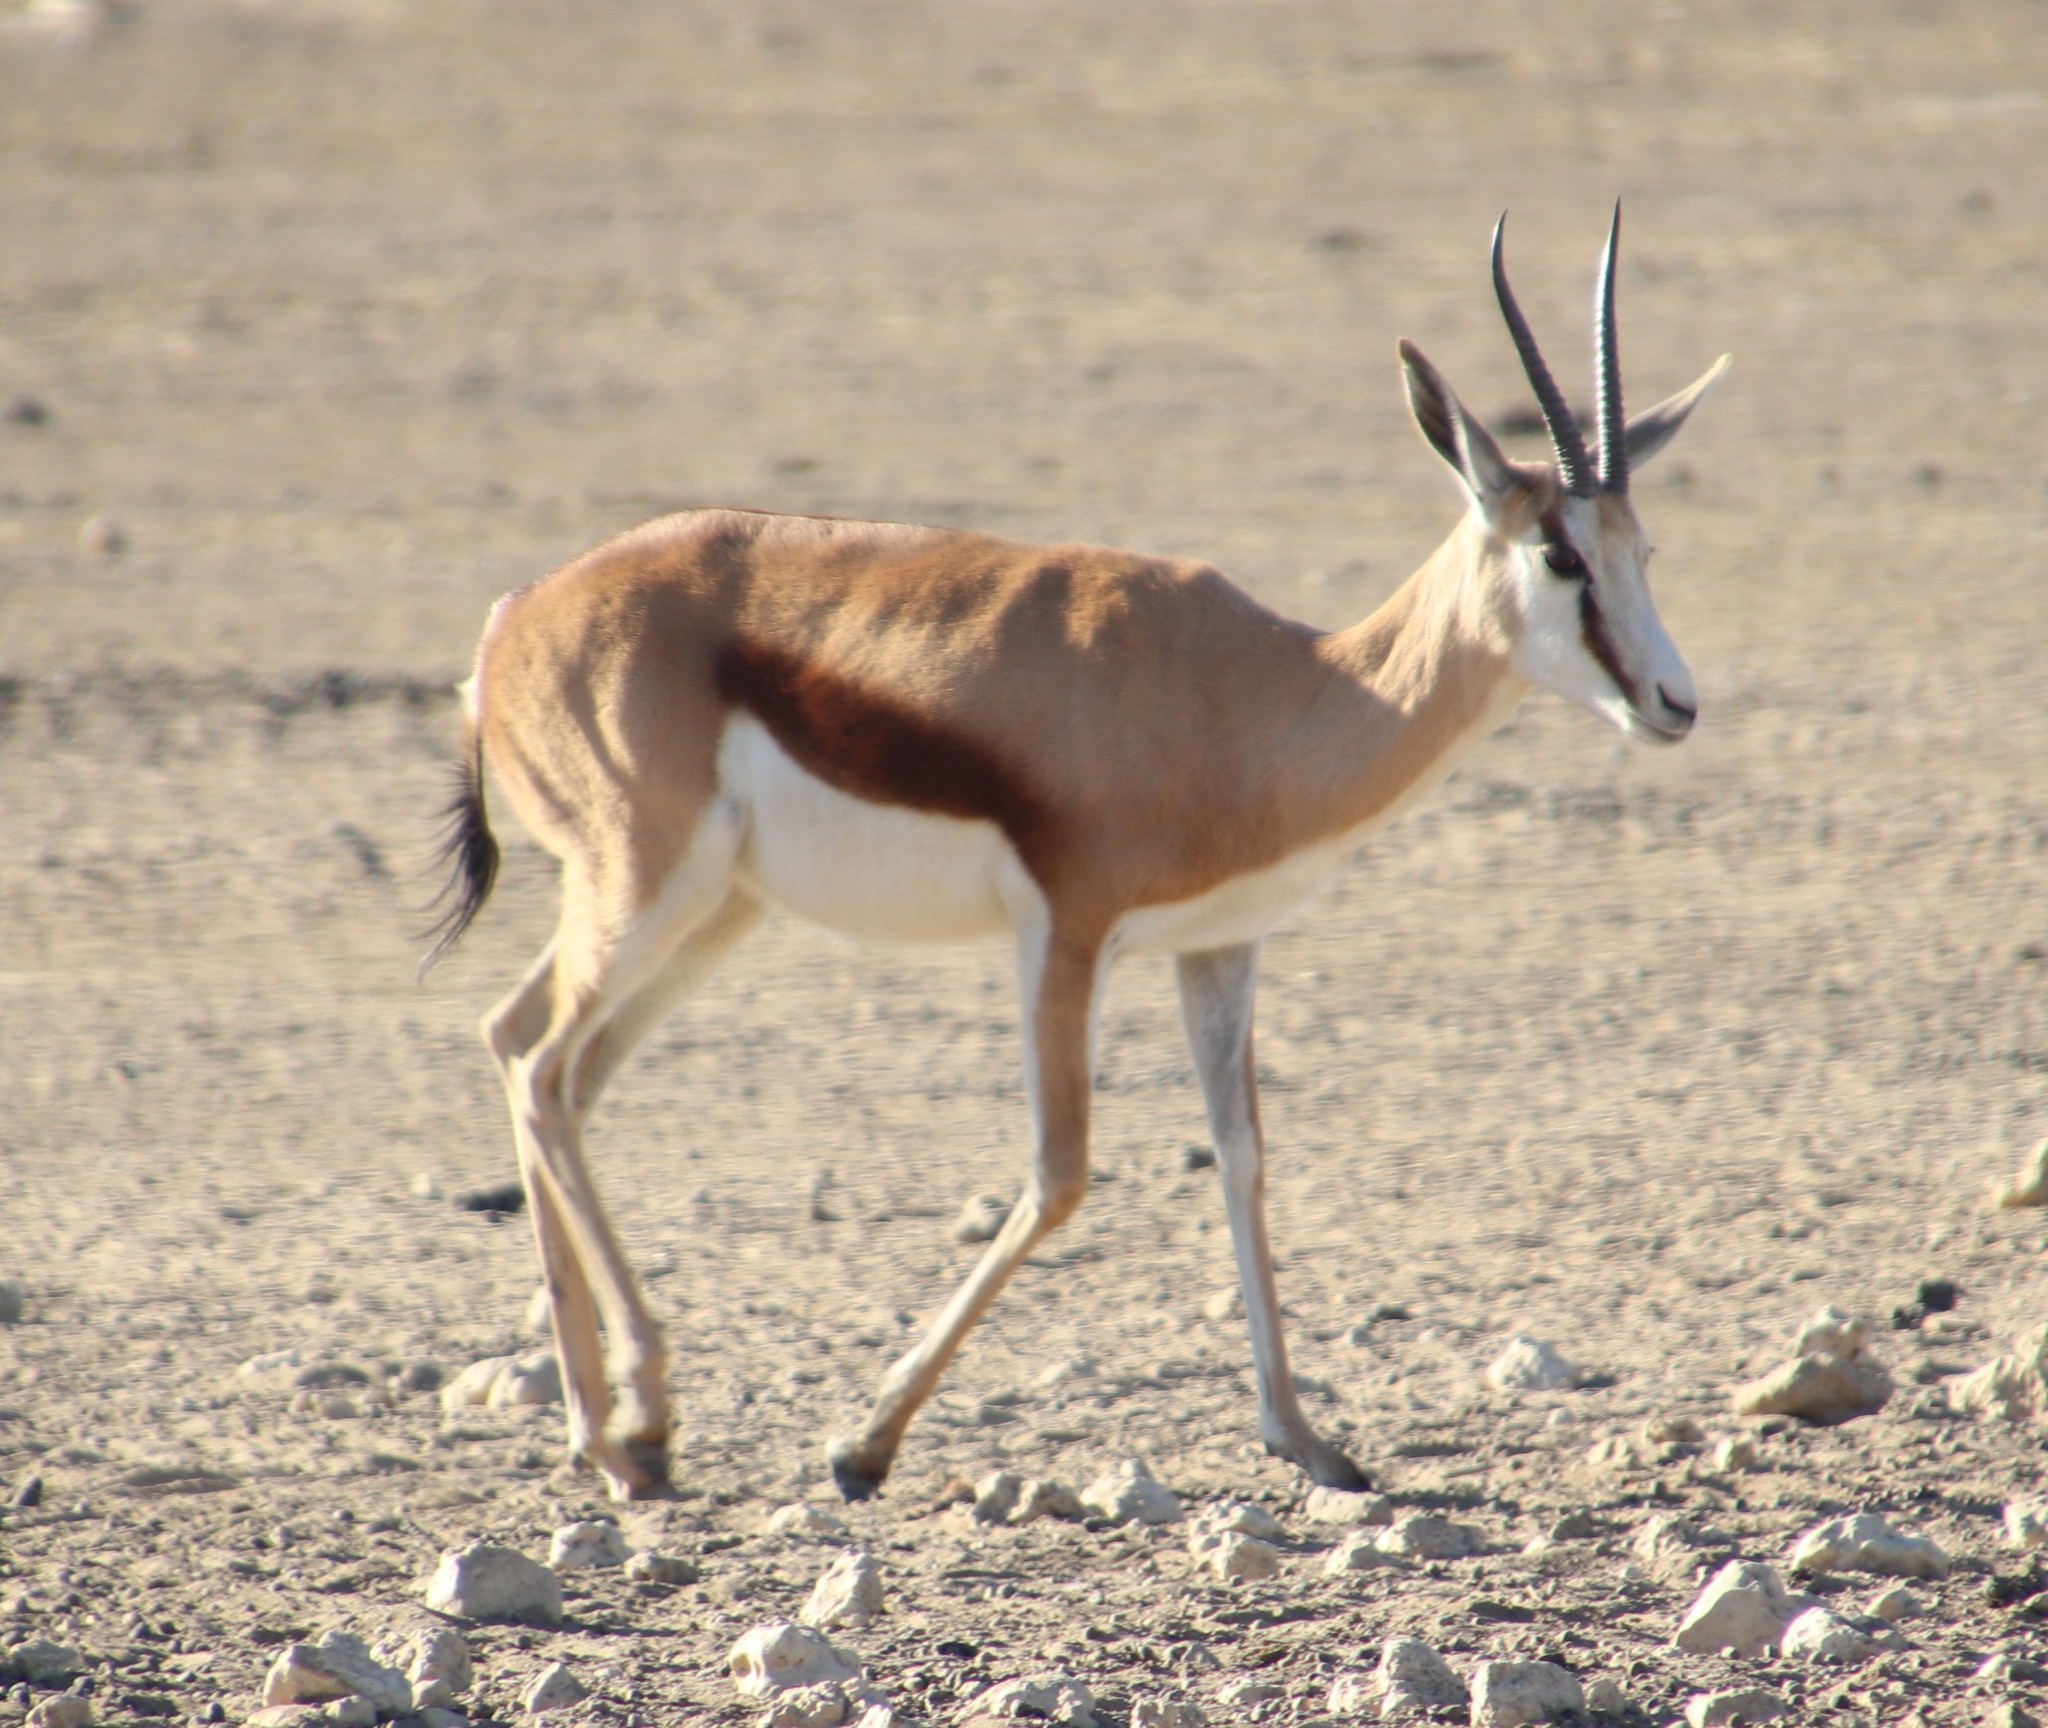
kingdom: Animalia
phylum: Chordata
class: Mammalia
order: Artiodactyla
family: Bovidae
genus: Antidorcas
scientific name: Antidorcas marsupialis
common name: Springbok
